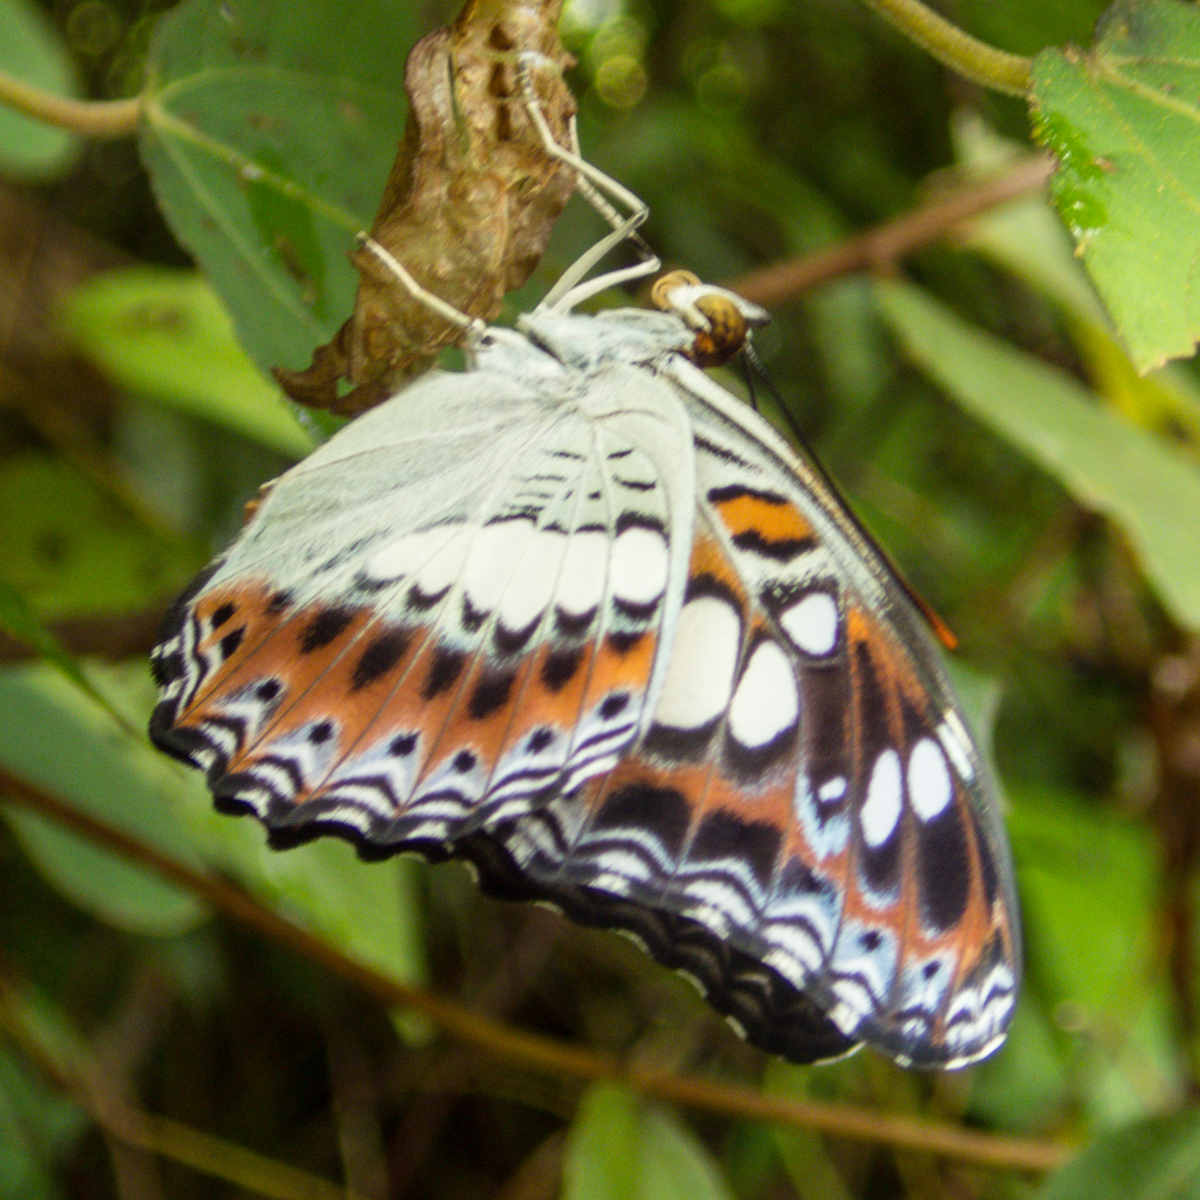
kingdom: Animalia
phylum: Arthropoda
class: Insecta
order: Lepidoptera
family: Nymphalidae
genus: Limenitis
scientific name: Limenitis Moduza procris
